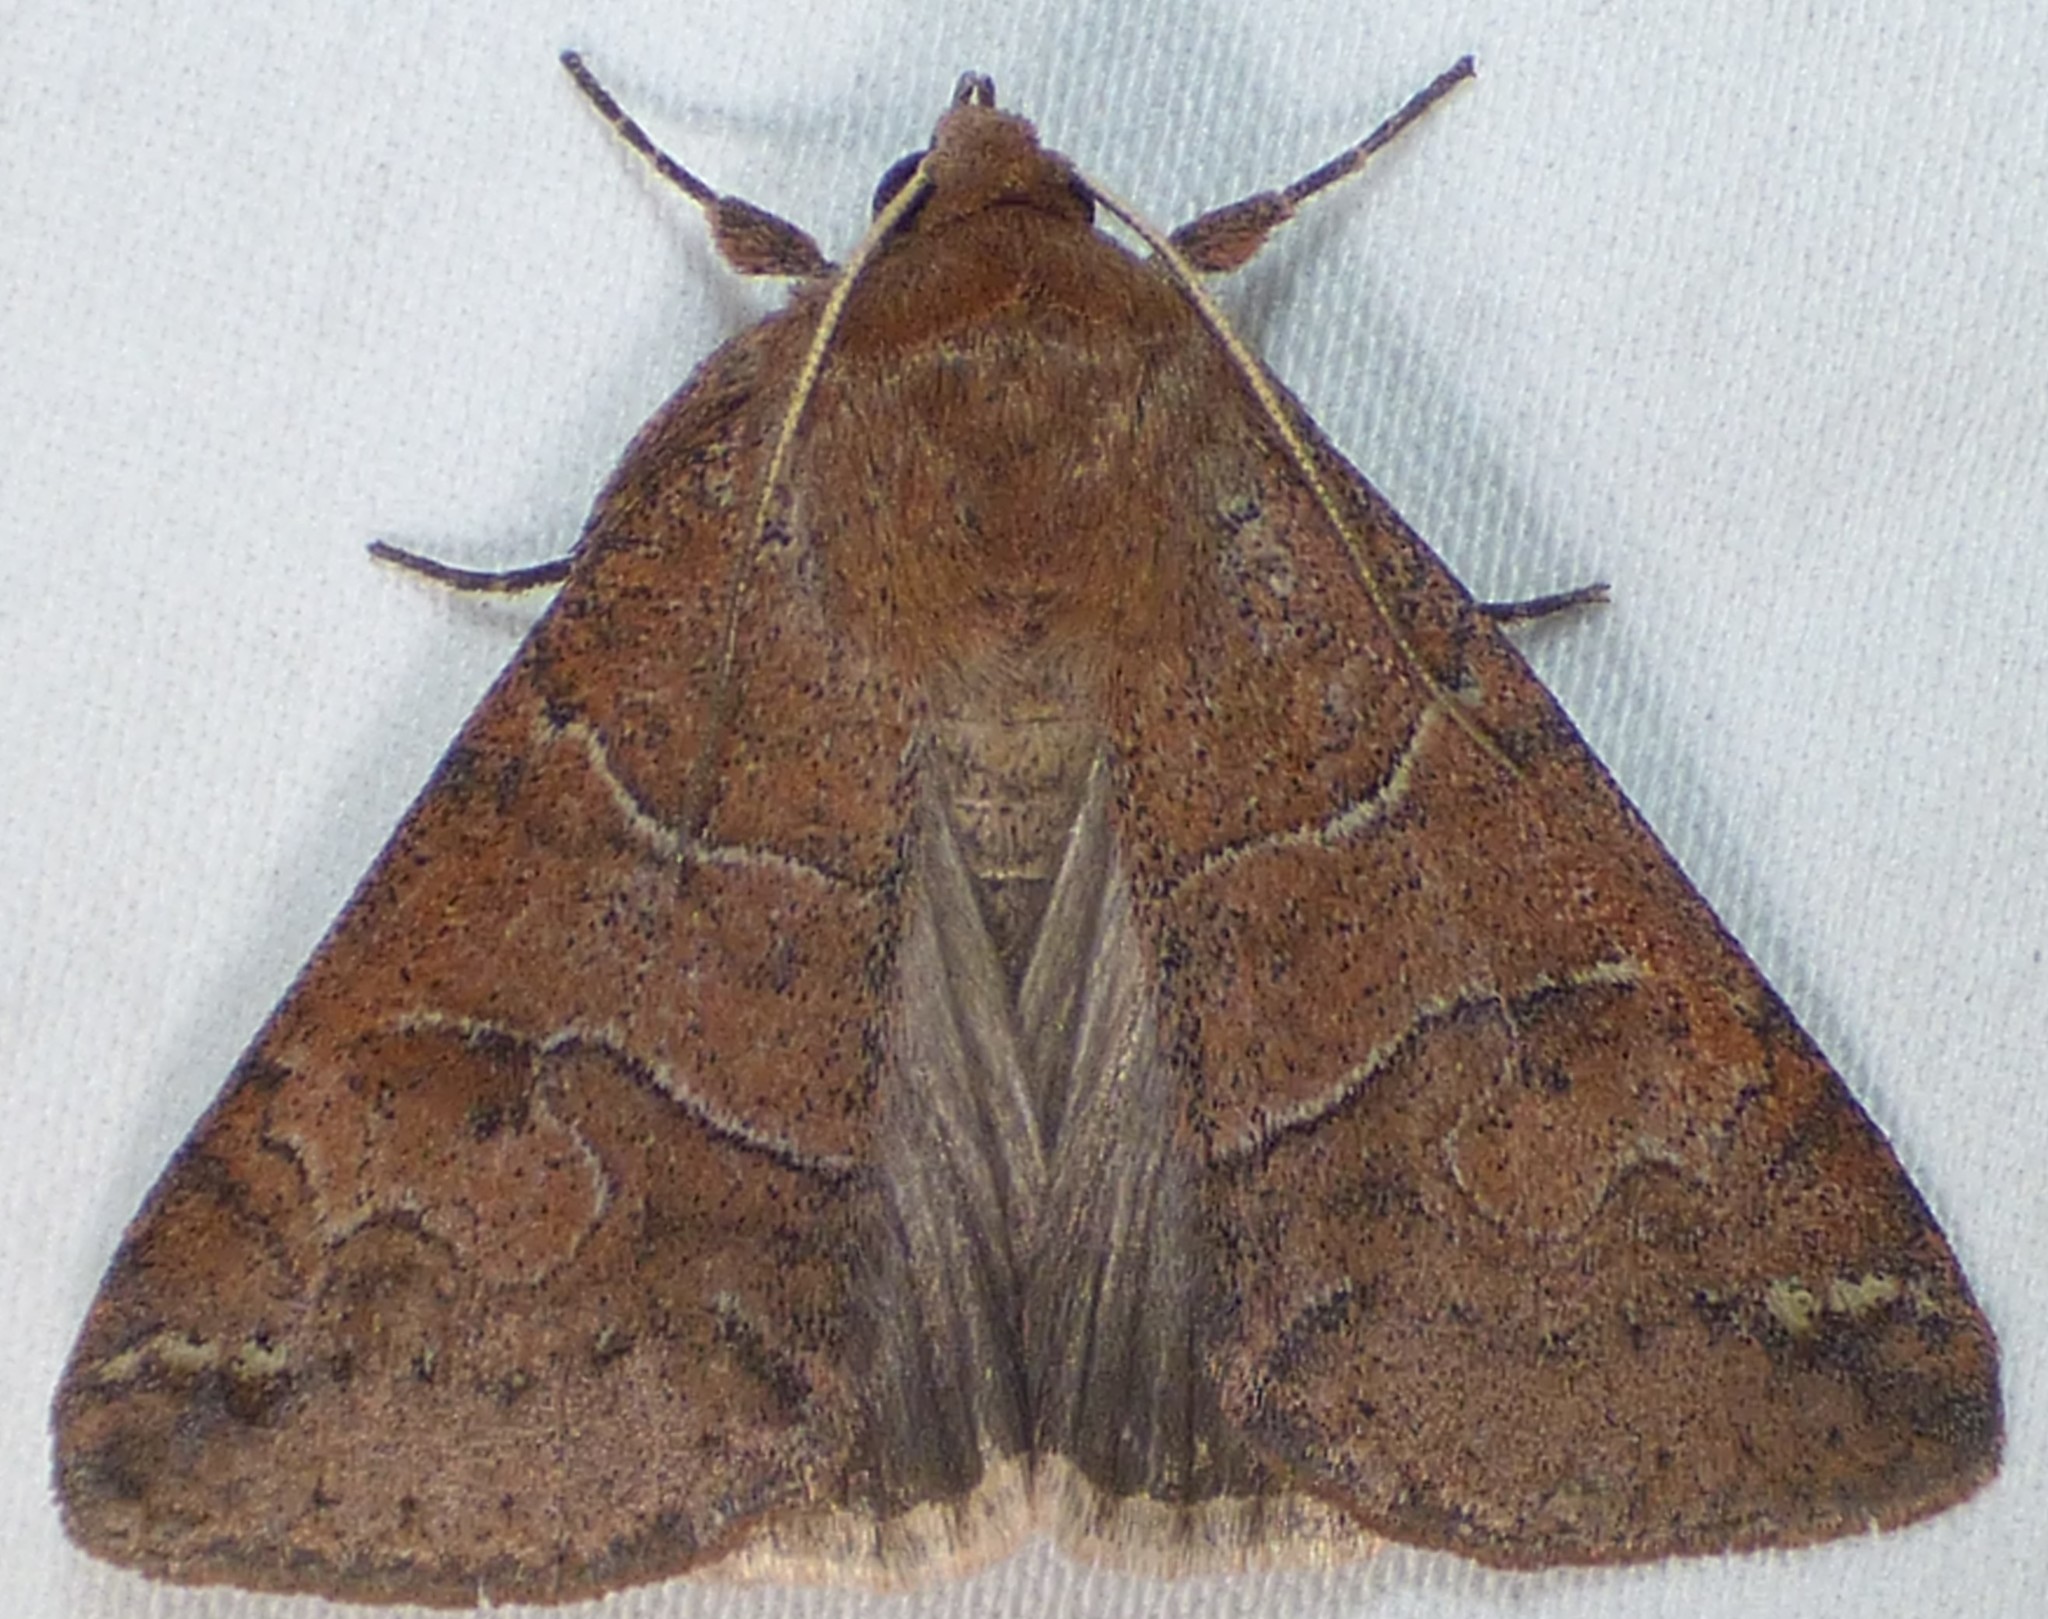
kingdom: Animalia
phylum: Arthropoda
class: Insecta
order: Lepidoptera
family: Erebidae
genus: Cissusa
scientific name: Cissusa spadix
